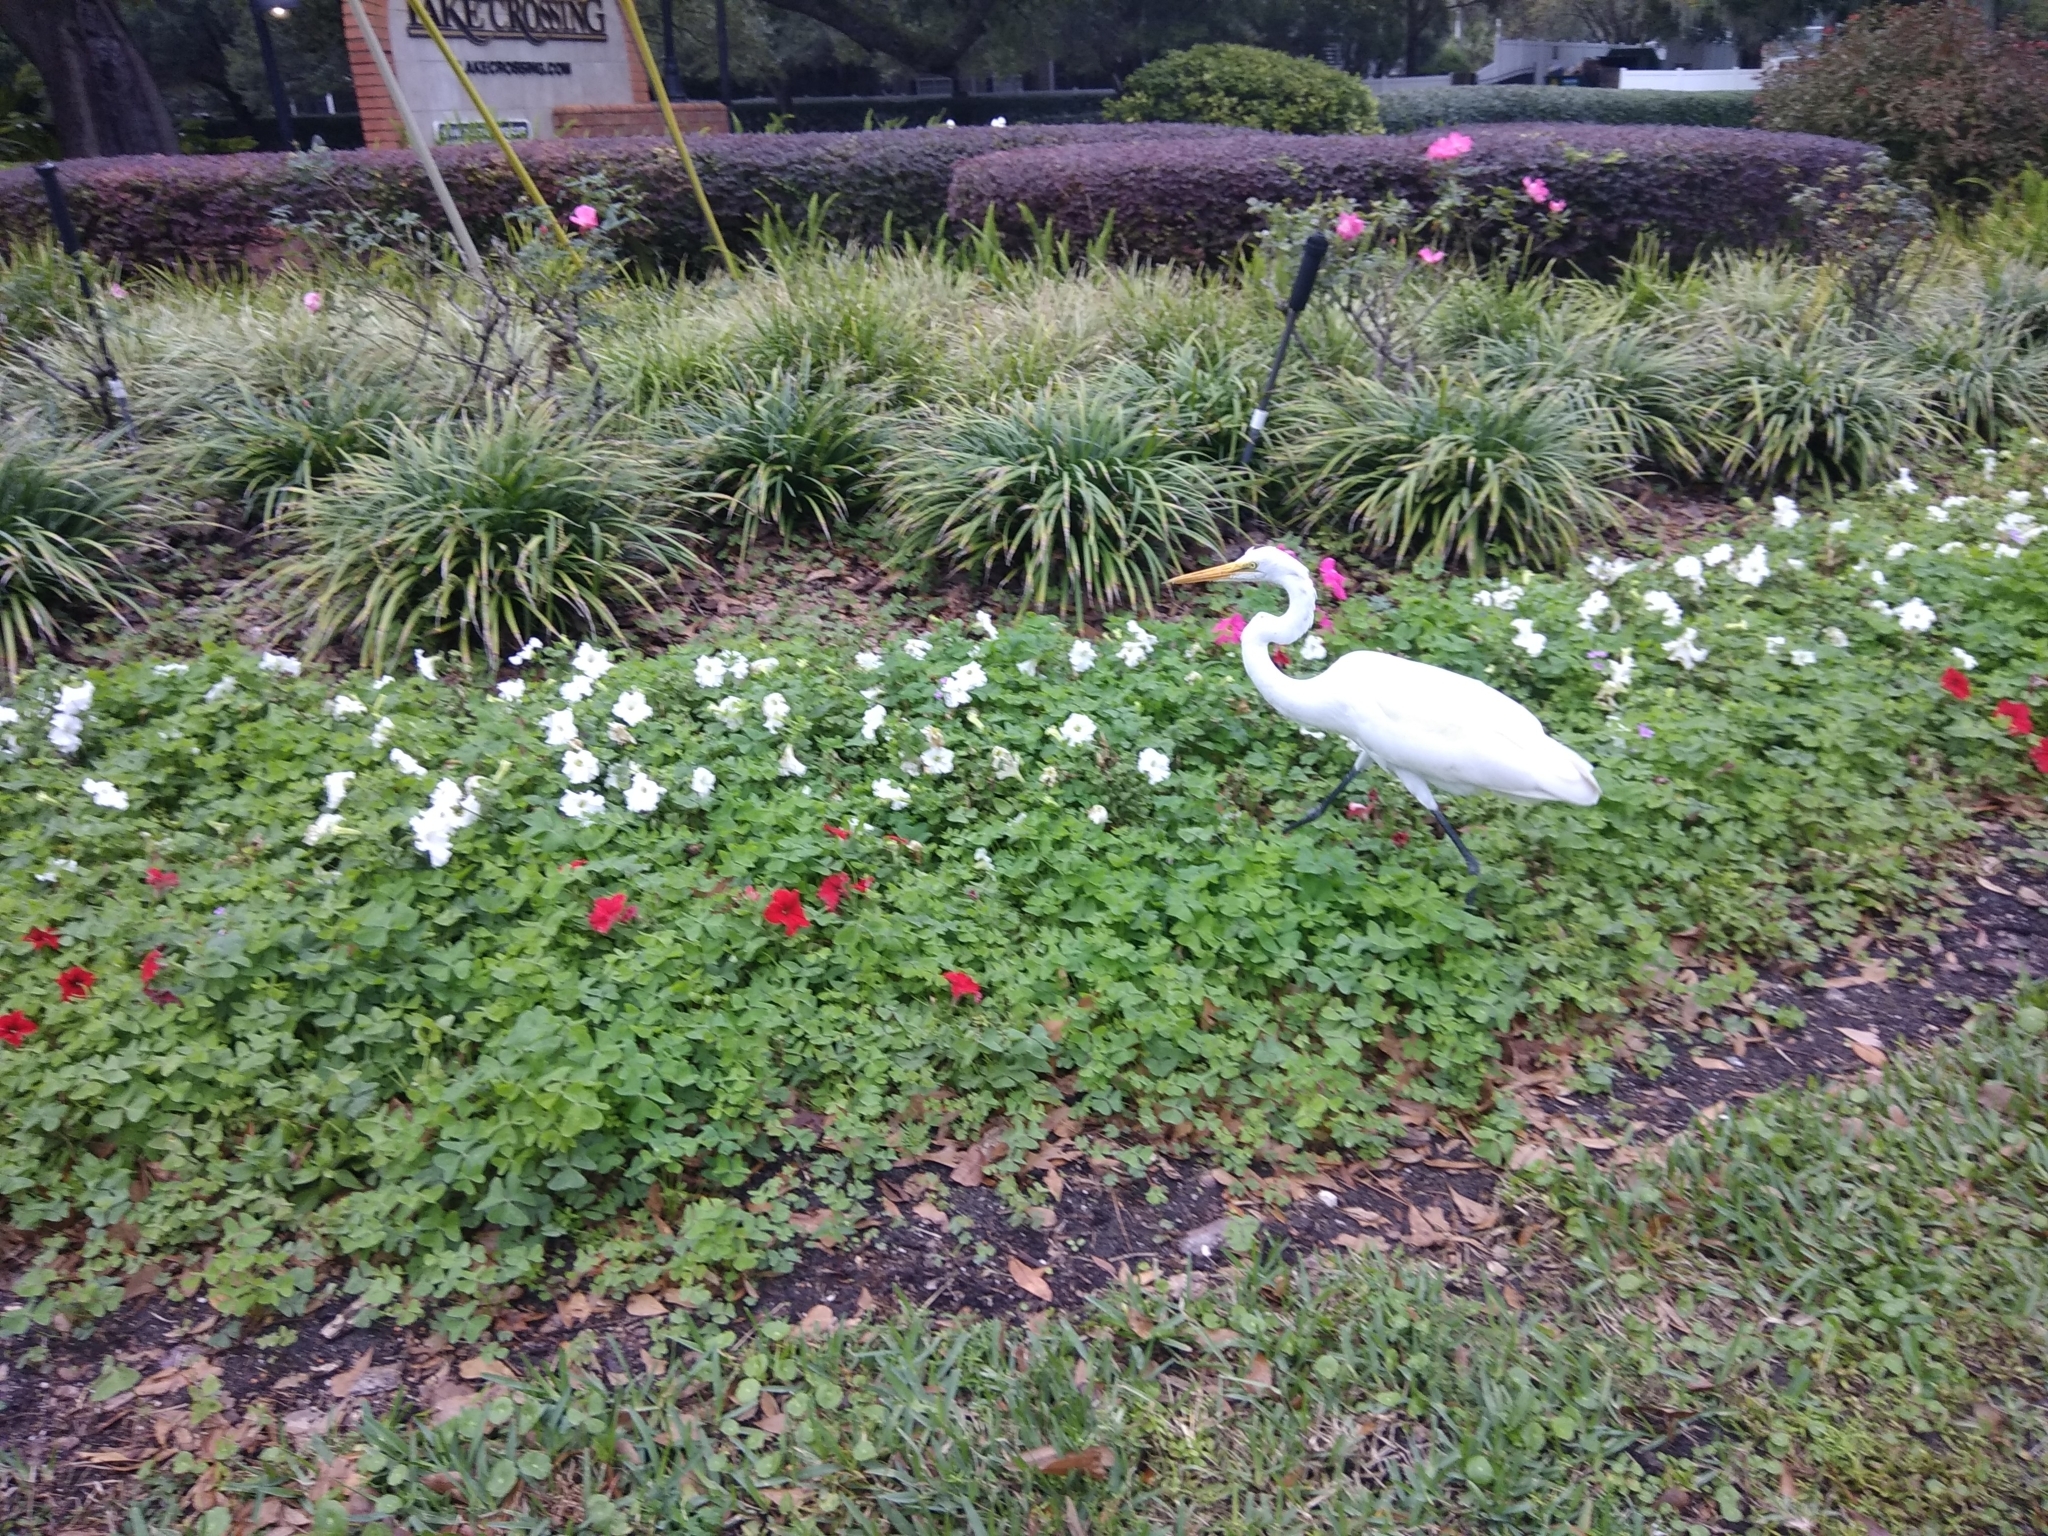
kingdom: Animalia
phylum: Chordata
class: Aves
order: Pelecaniformes
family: Ardeidae
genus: Ardea
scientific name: Ardea alba
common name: Great egret
